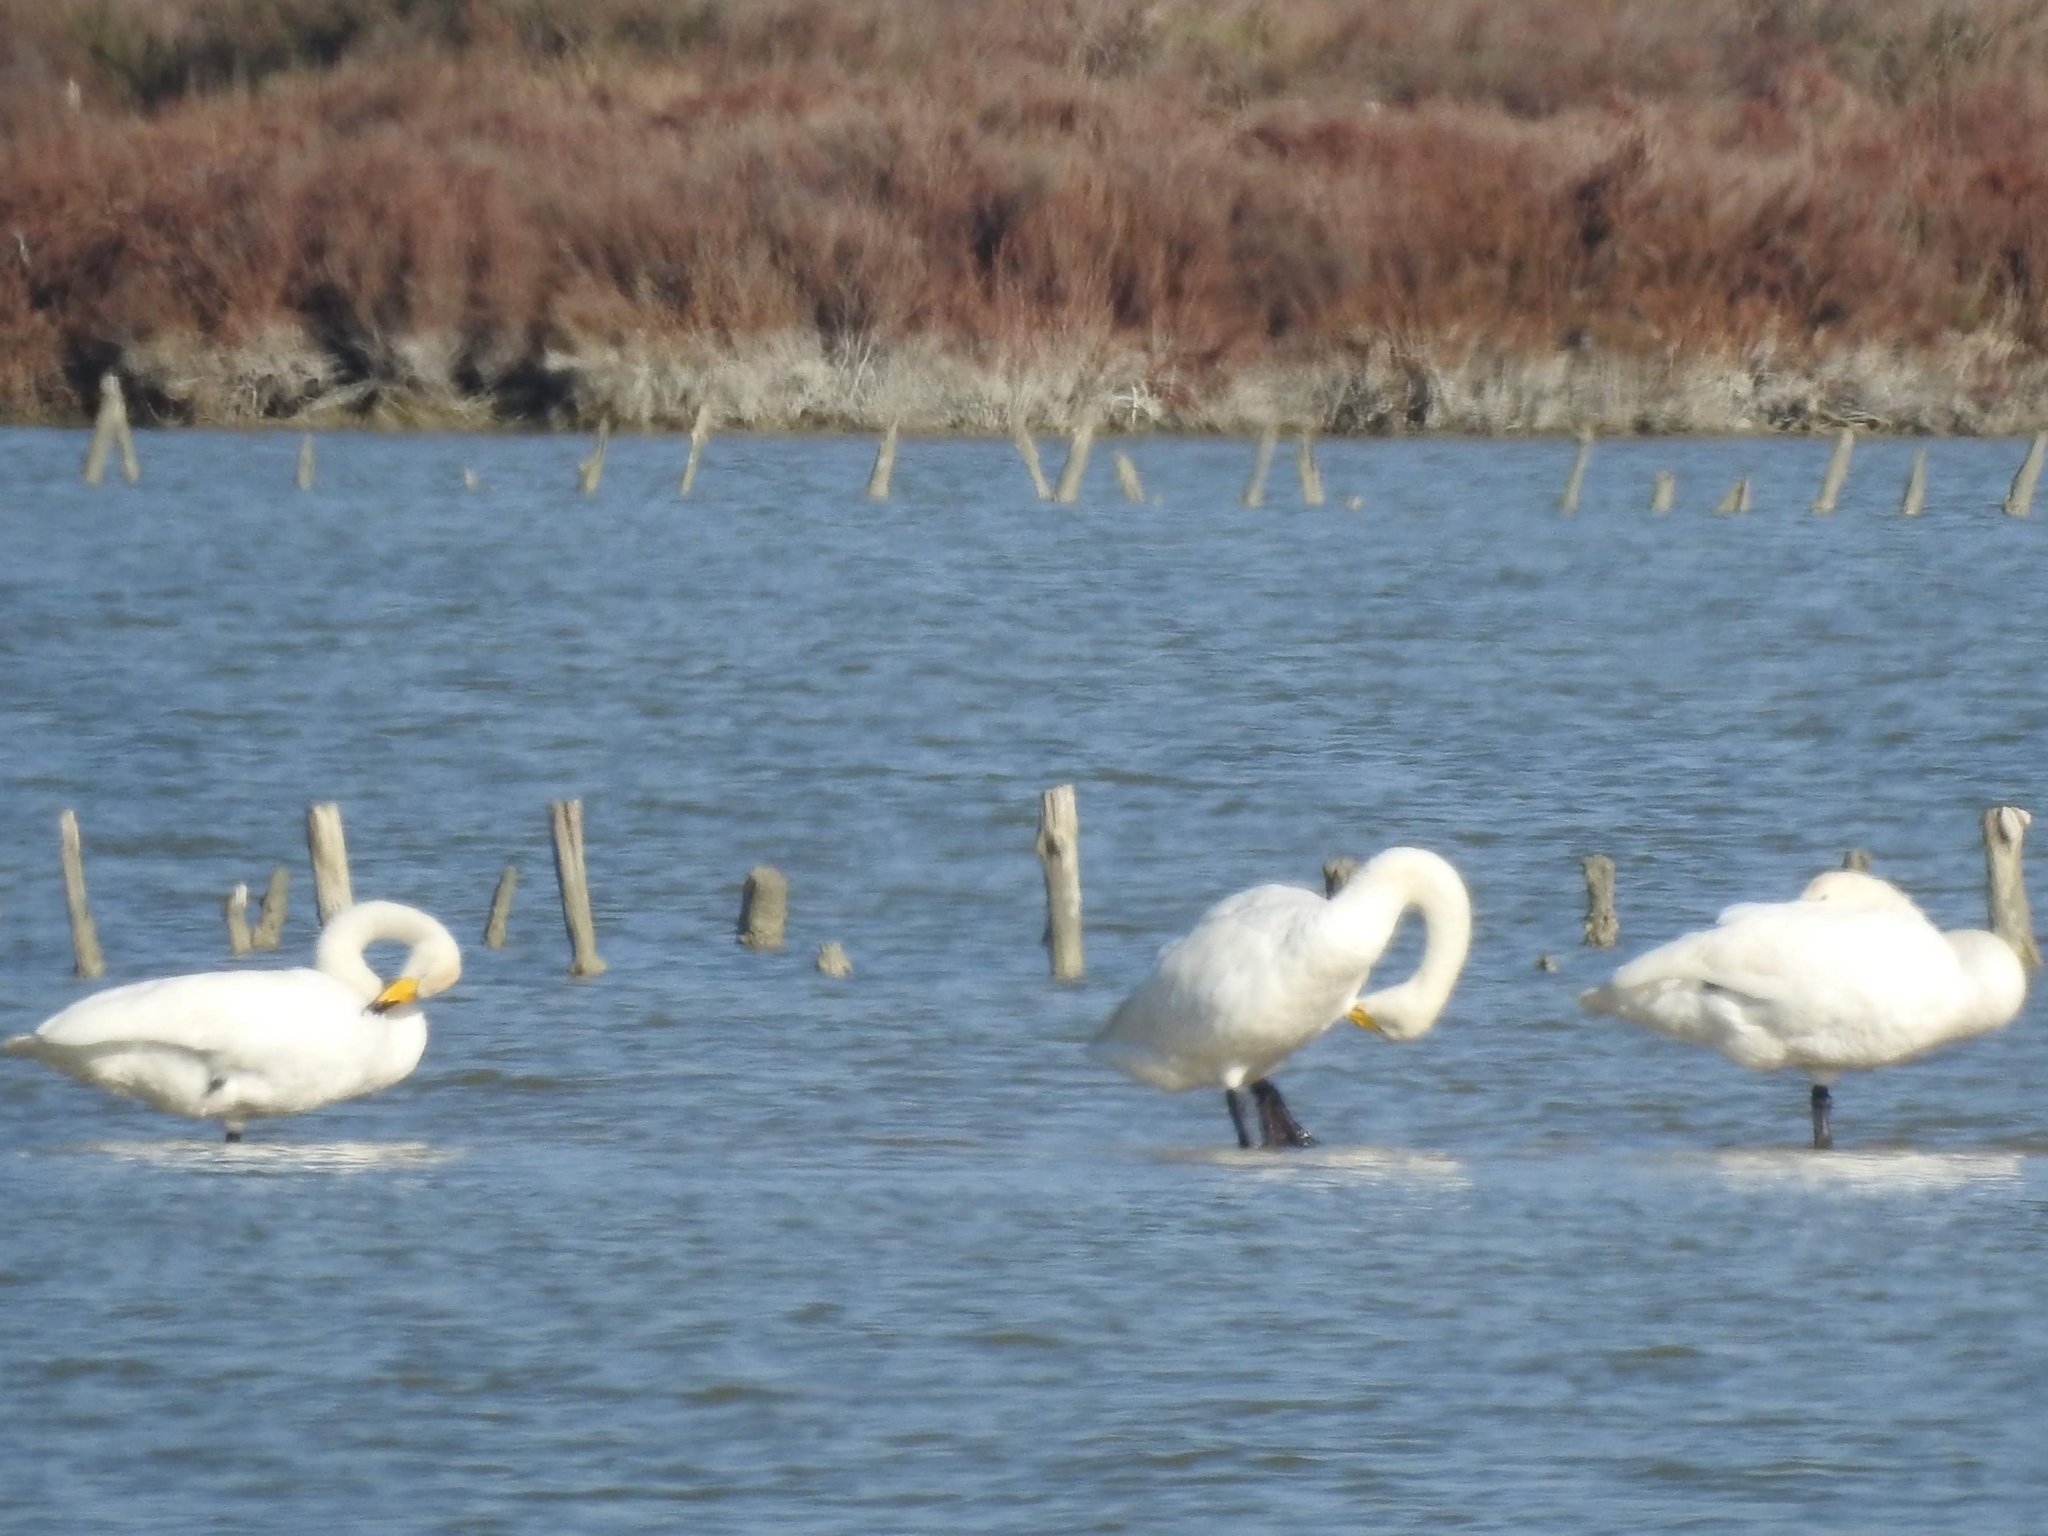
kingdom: Animalia
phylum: Chordata
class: Aves
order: Anseriformes
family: Anatidae
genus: Cygnus
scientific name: Cygnus cygnus
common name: Whooper swan
